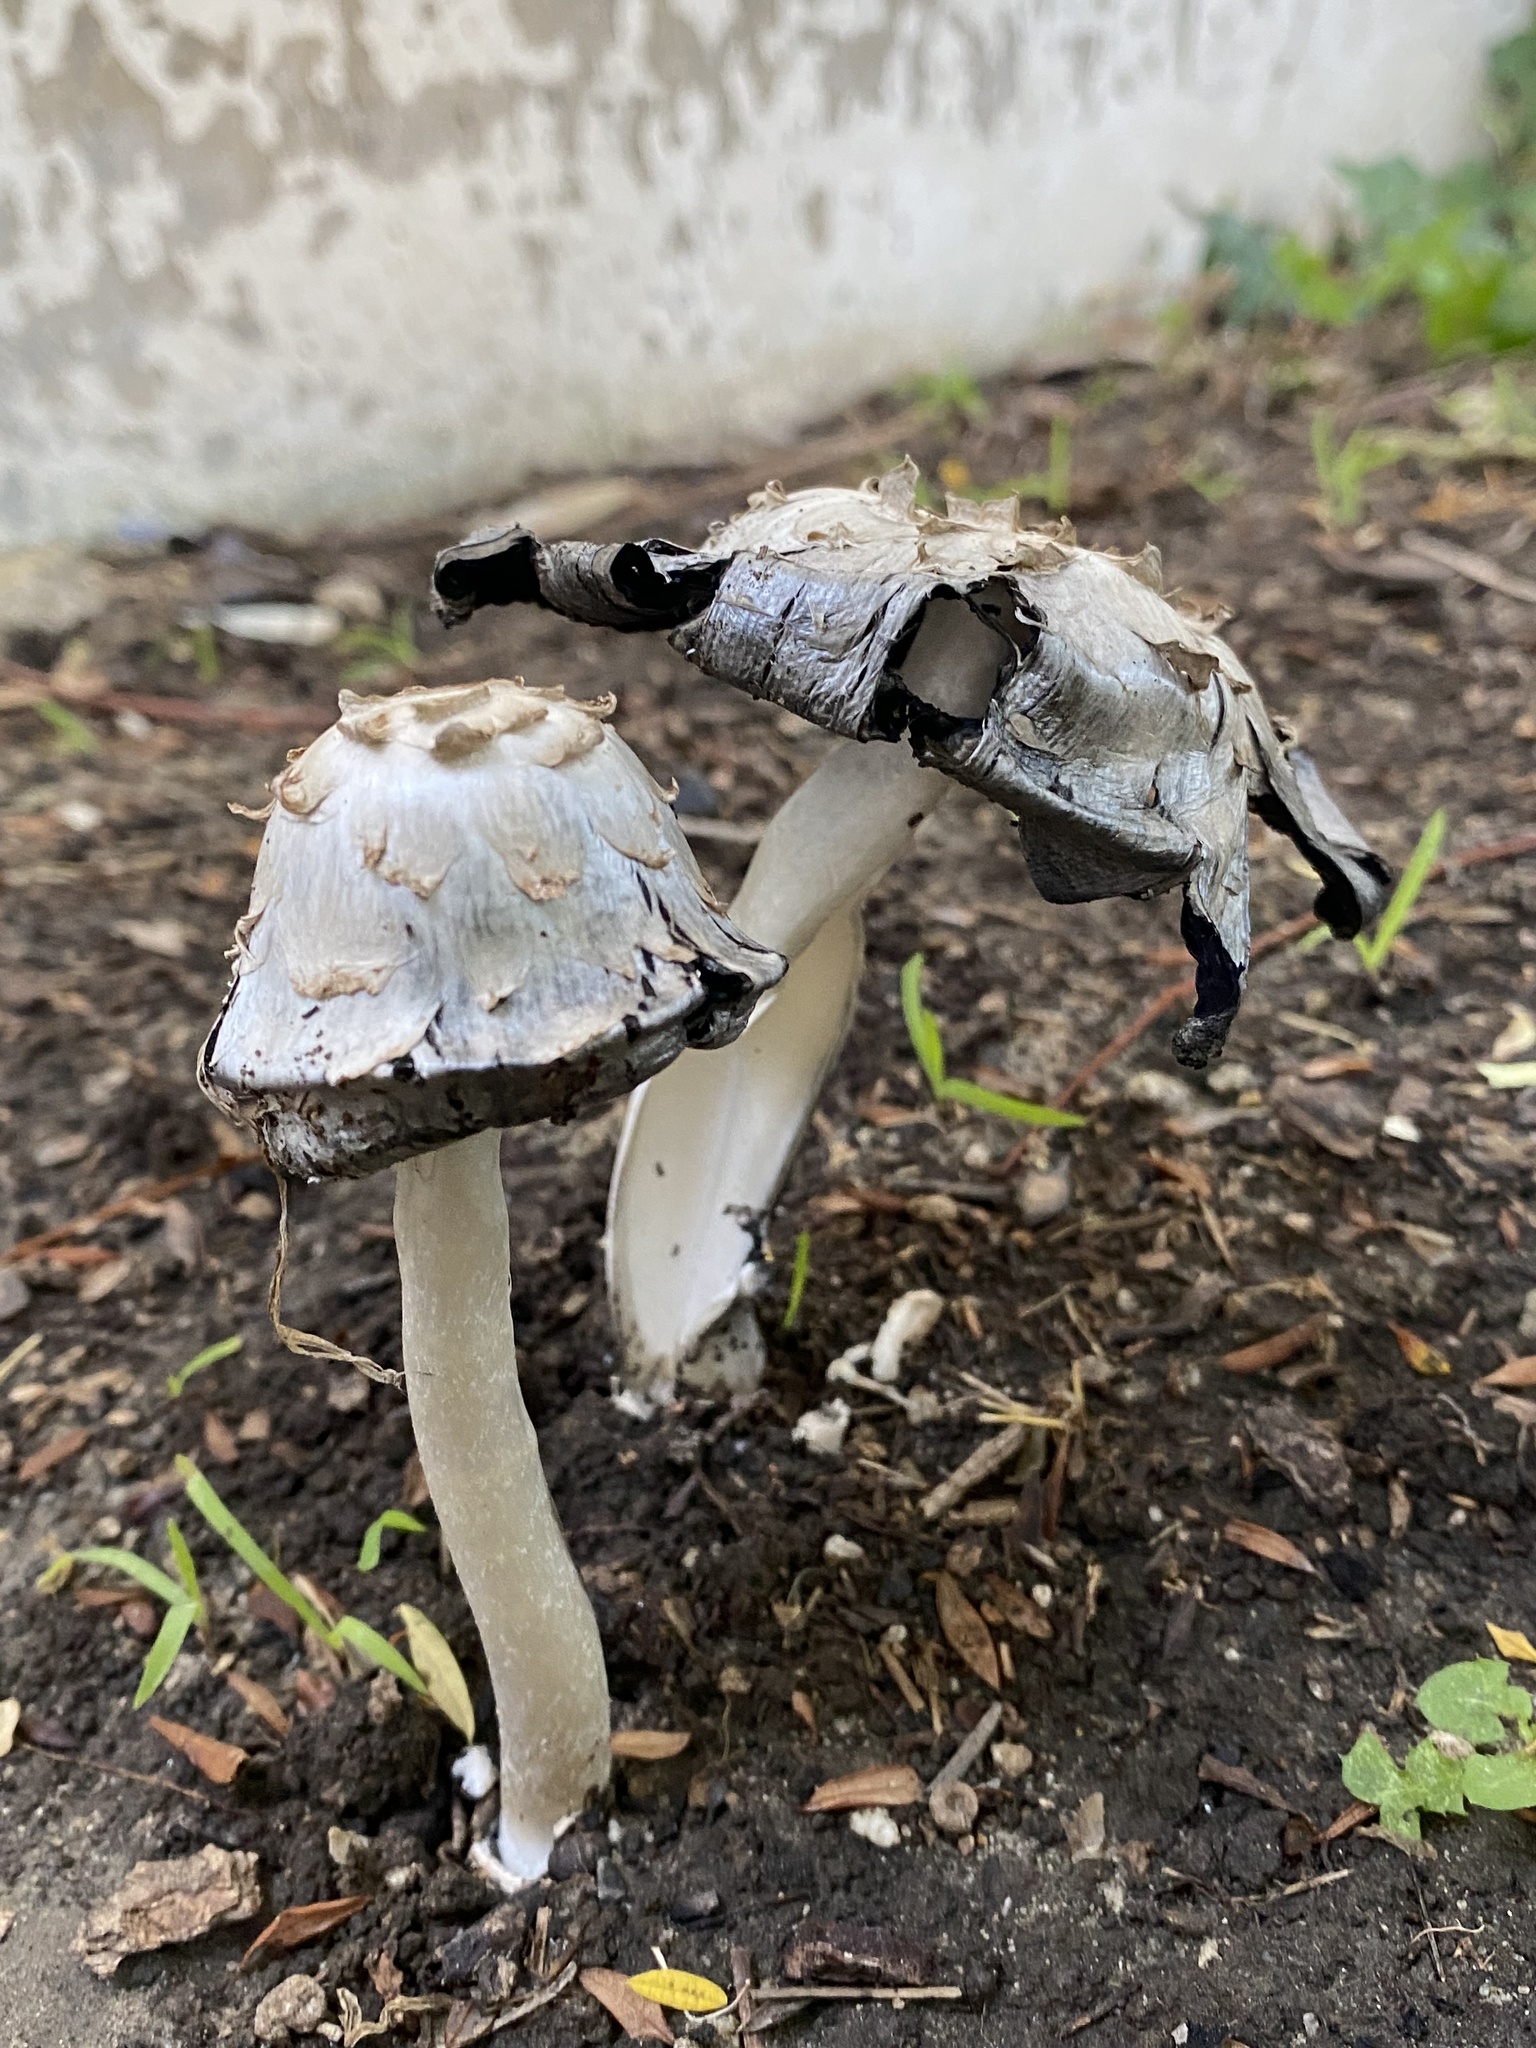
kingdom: Fungi
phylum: Basidiomycota
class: Agaricomycetes
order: Agaricales
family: Agaricaceae
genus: Coprinus
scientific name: Coprinus comatus
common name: Lawyer's wig
